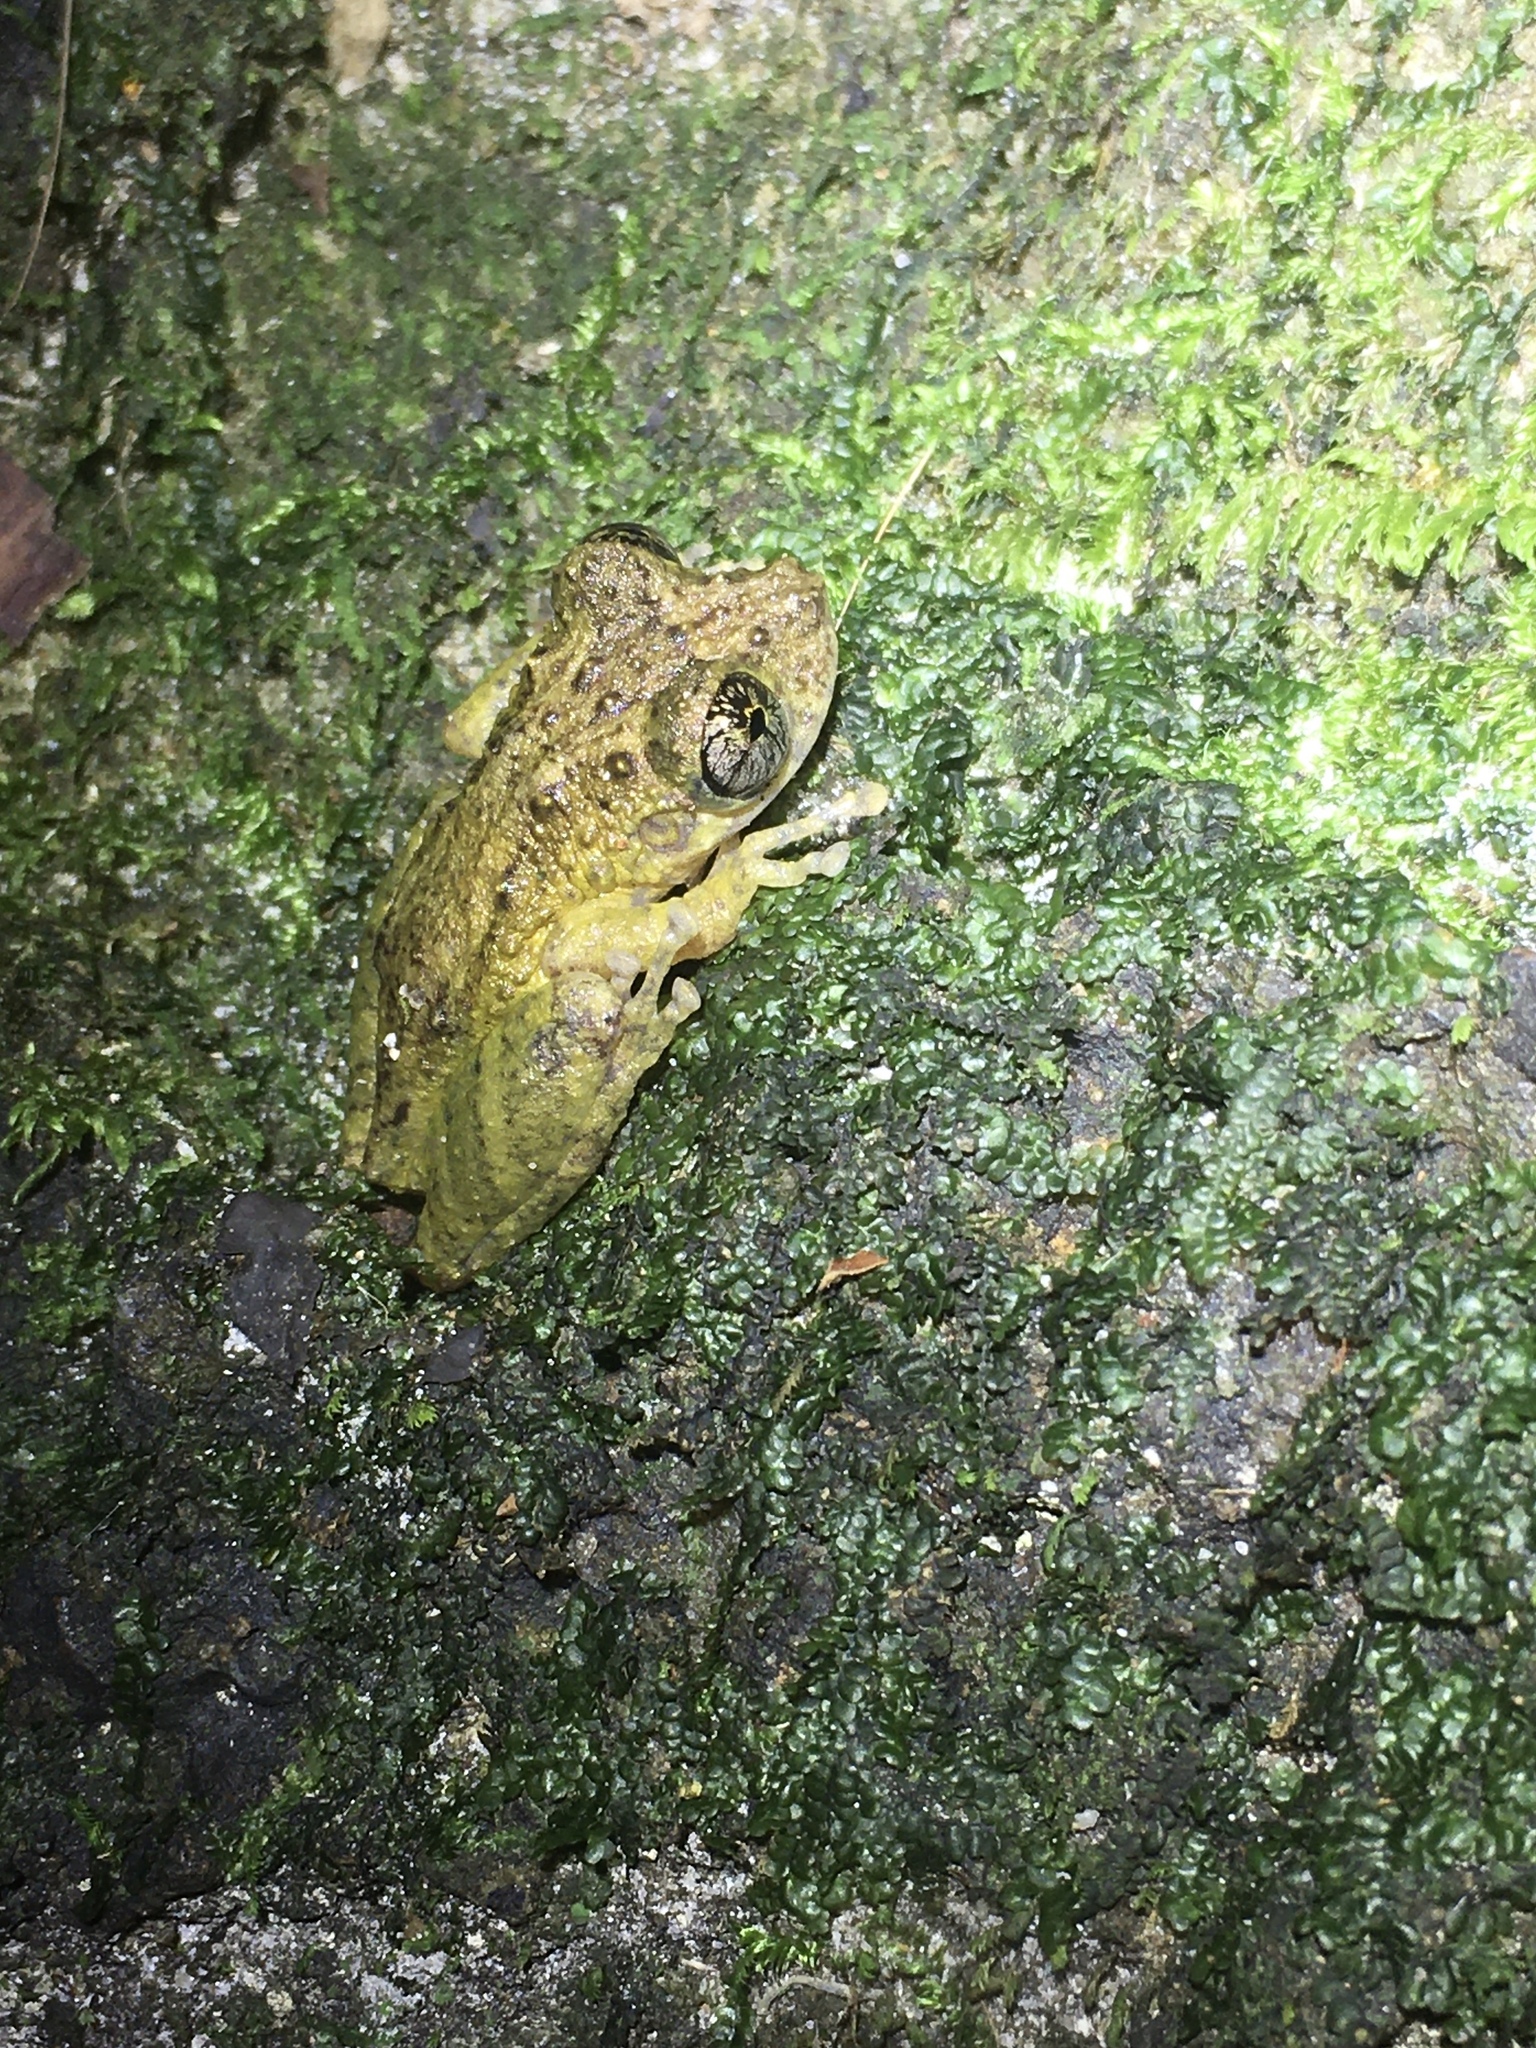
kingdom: Animalia
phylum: Chordata
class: Amphibia
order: Anura
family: Hylidae
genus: Ololygon
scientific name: Ololygon muriciensis
